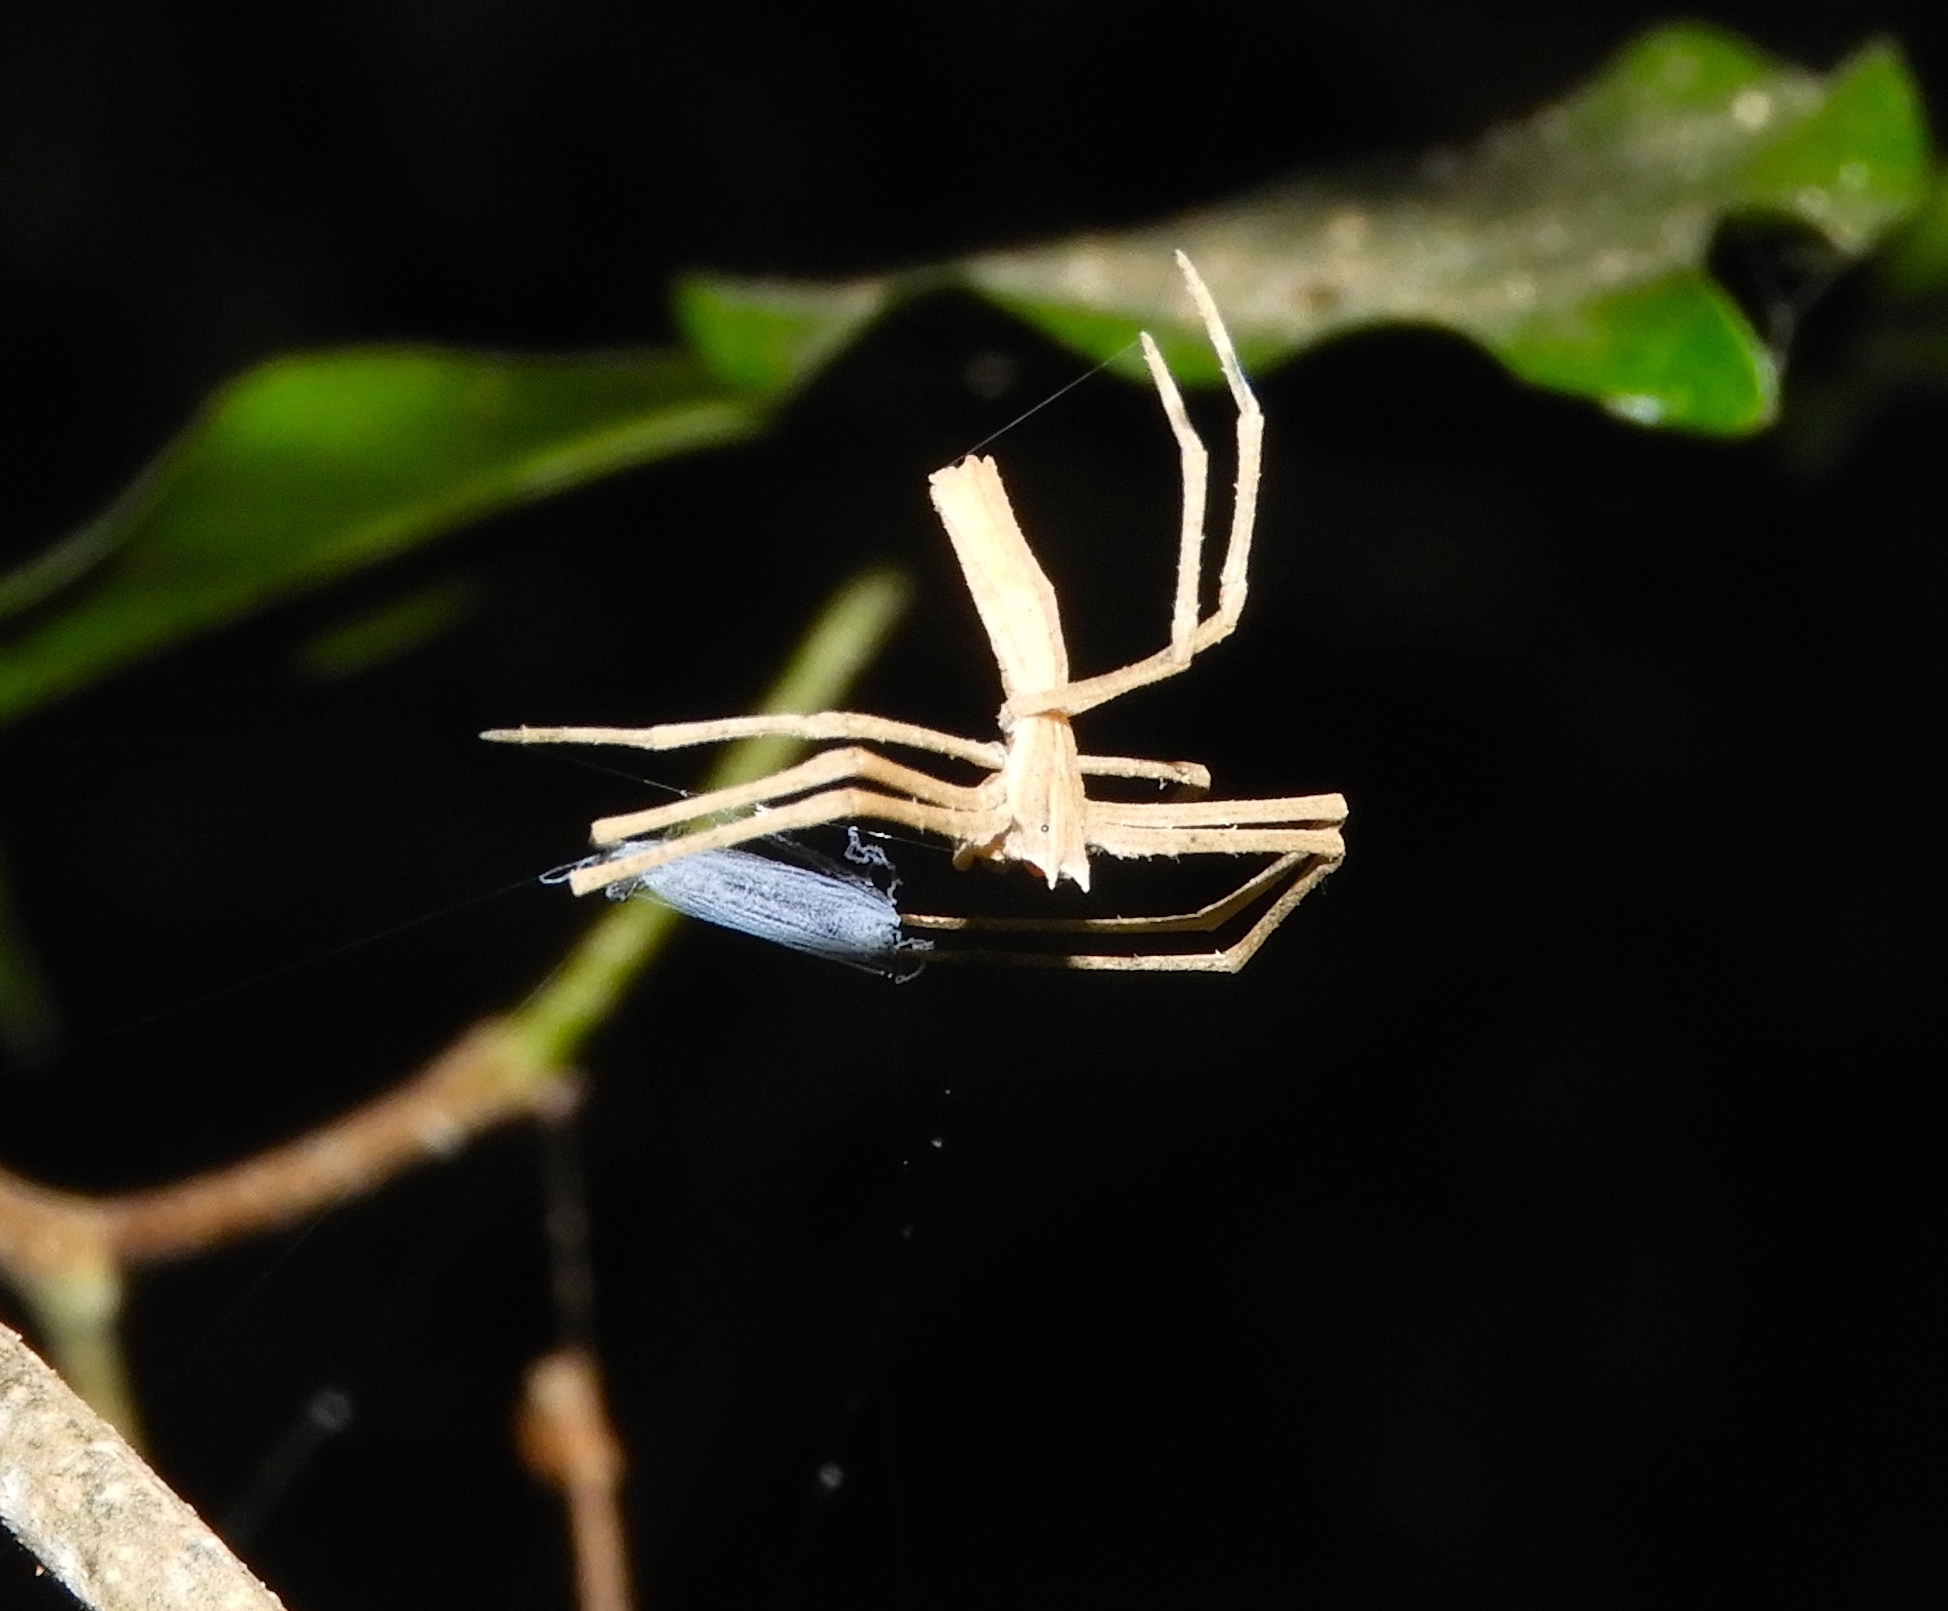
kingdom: Animalia
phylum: Arthropoda
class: Arachnida
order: Araneae
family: Deinopidae
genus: Deinopis
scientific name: Deinopis aurita
